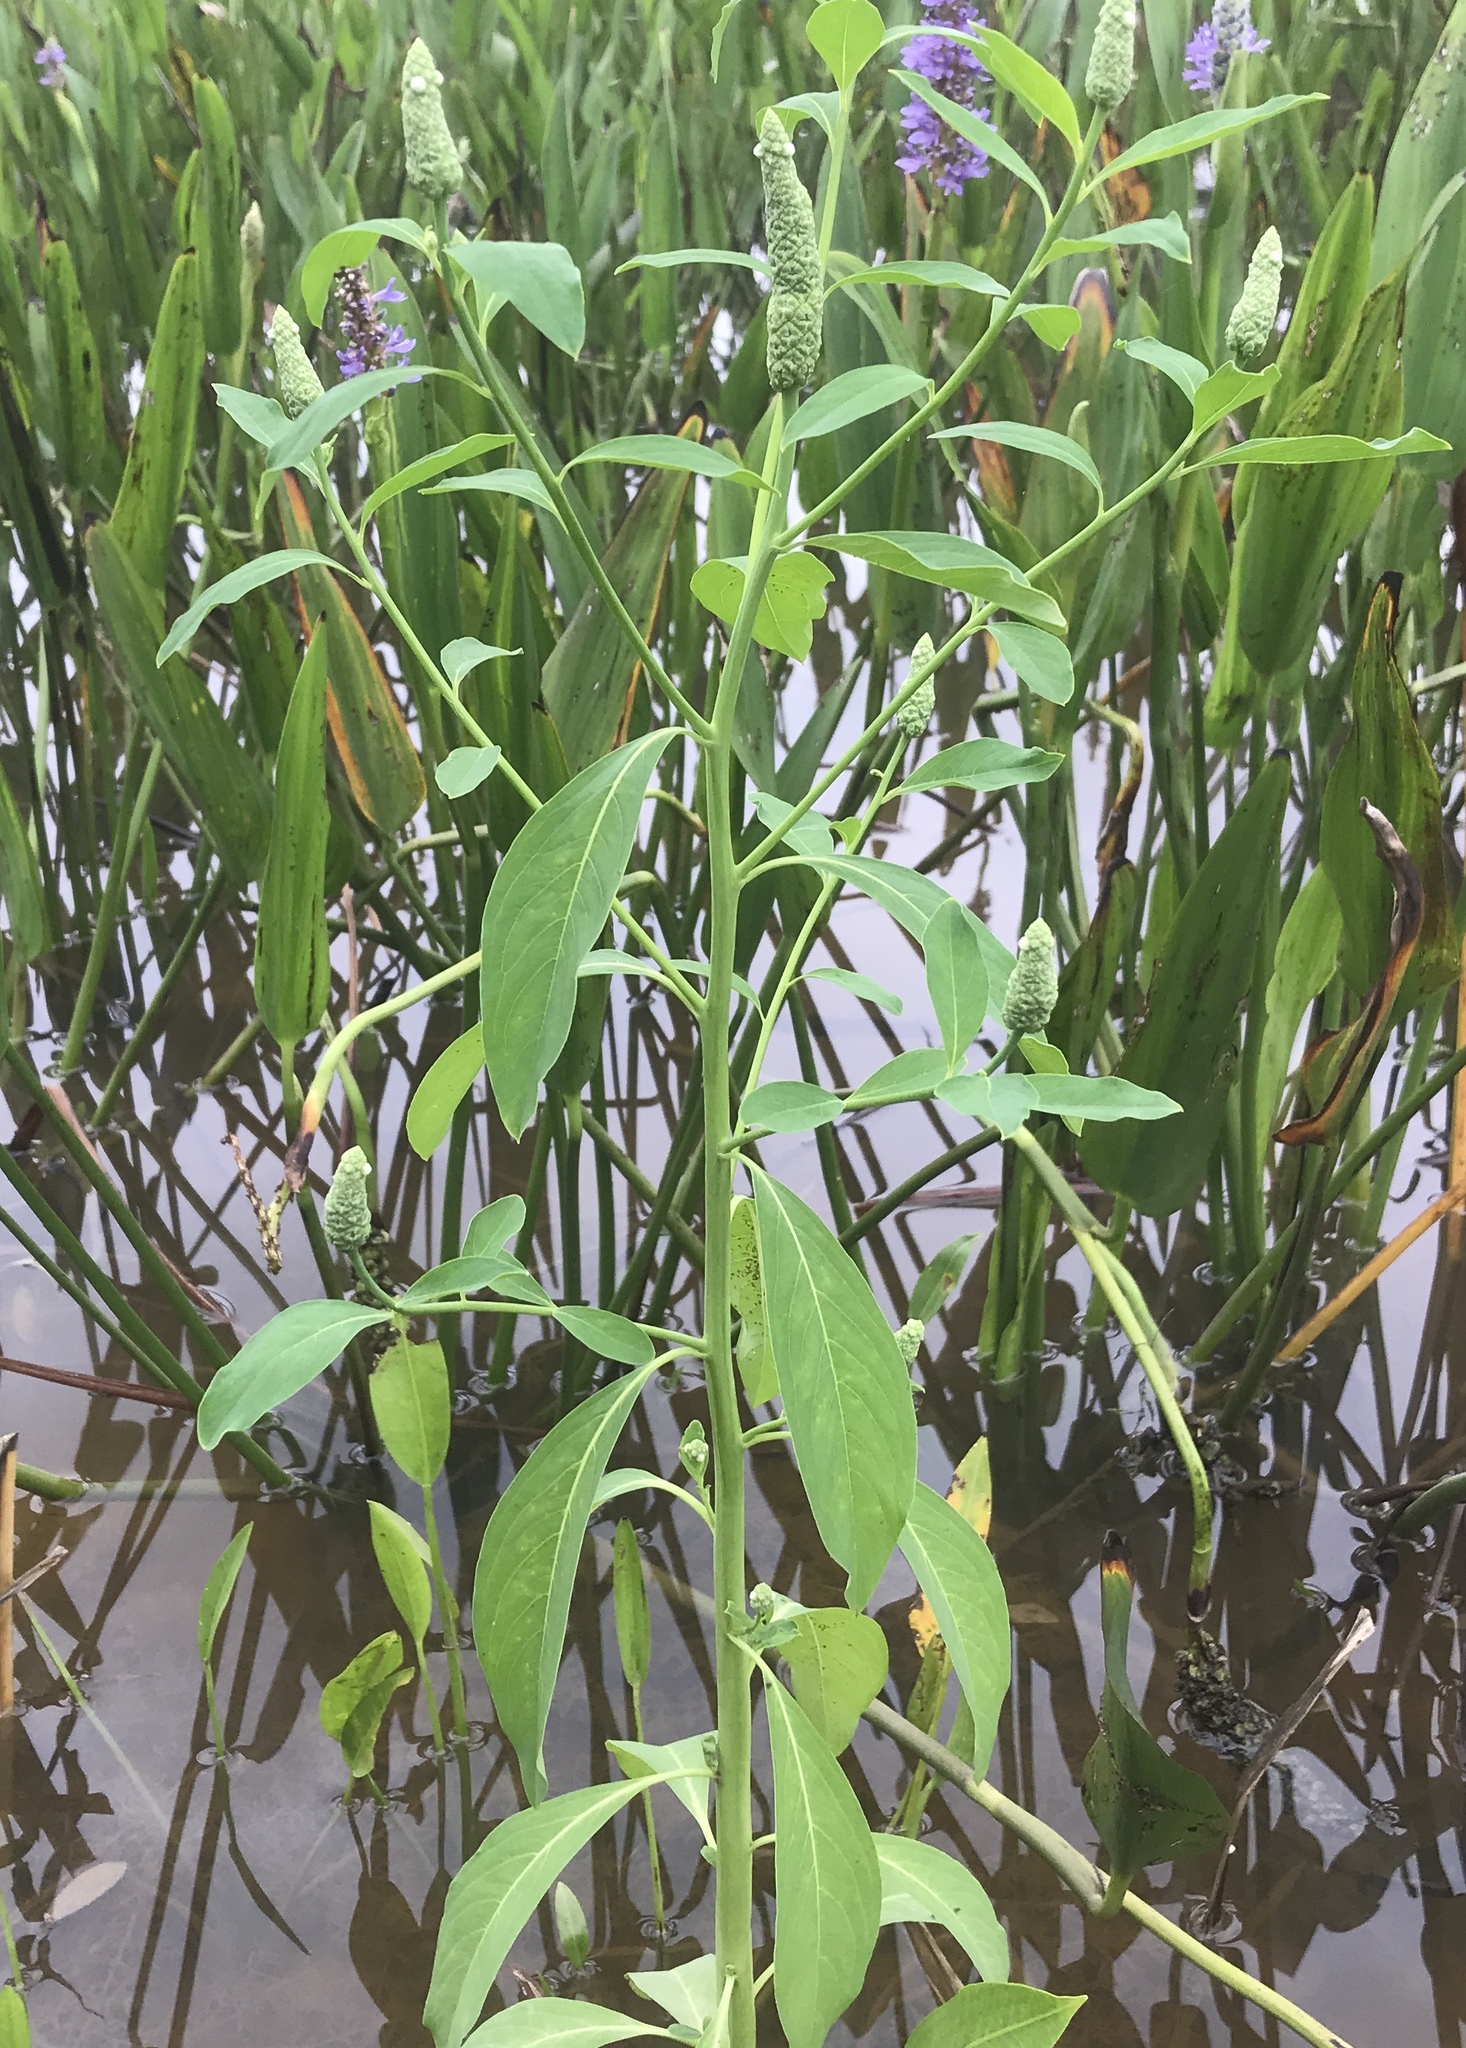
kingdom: Plantae
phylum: Tracheophyta
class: Magnoliopsida
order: Solanales
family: Sphenocleaceae
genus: Sphenoclea
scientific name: Sphenoclea zeylanica
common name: Chickenspike
